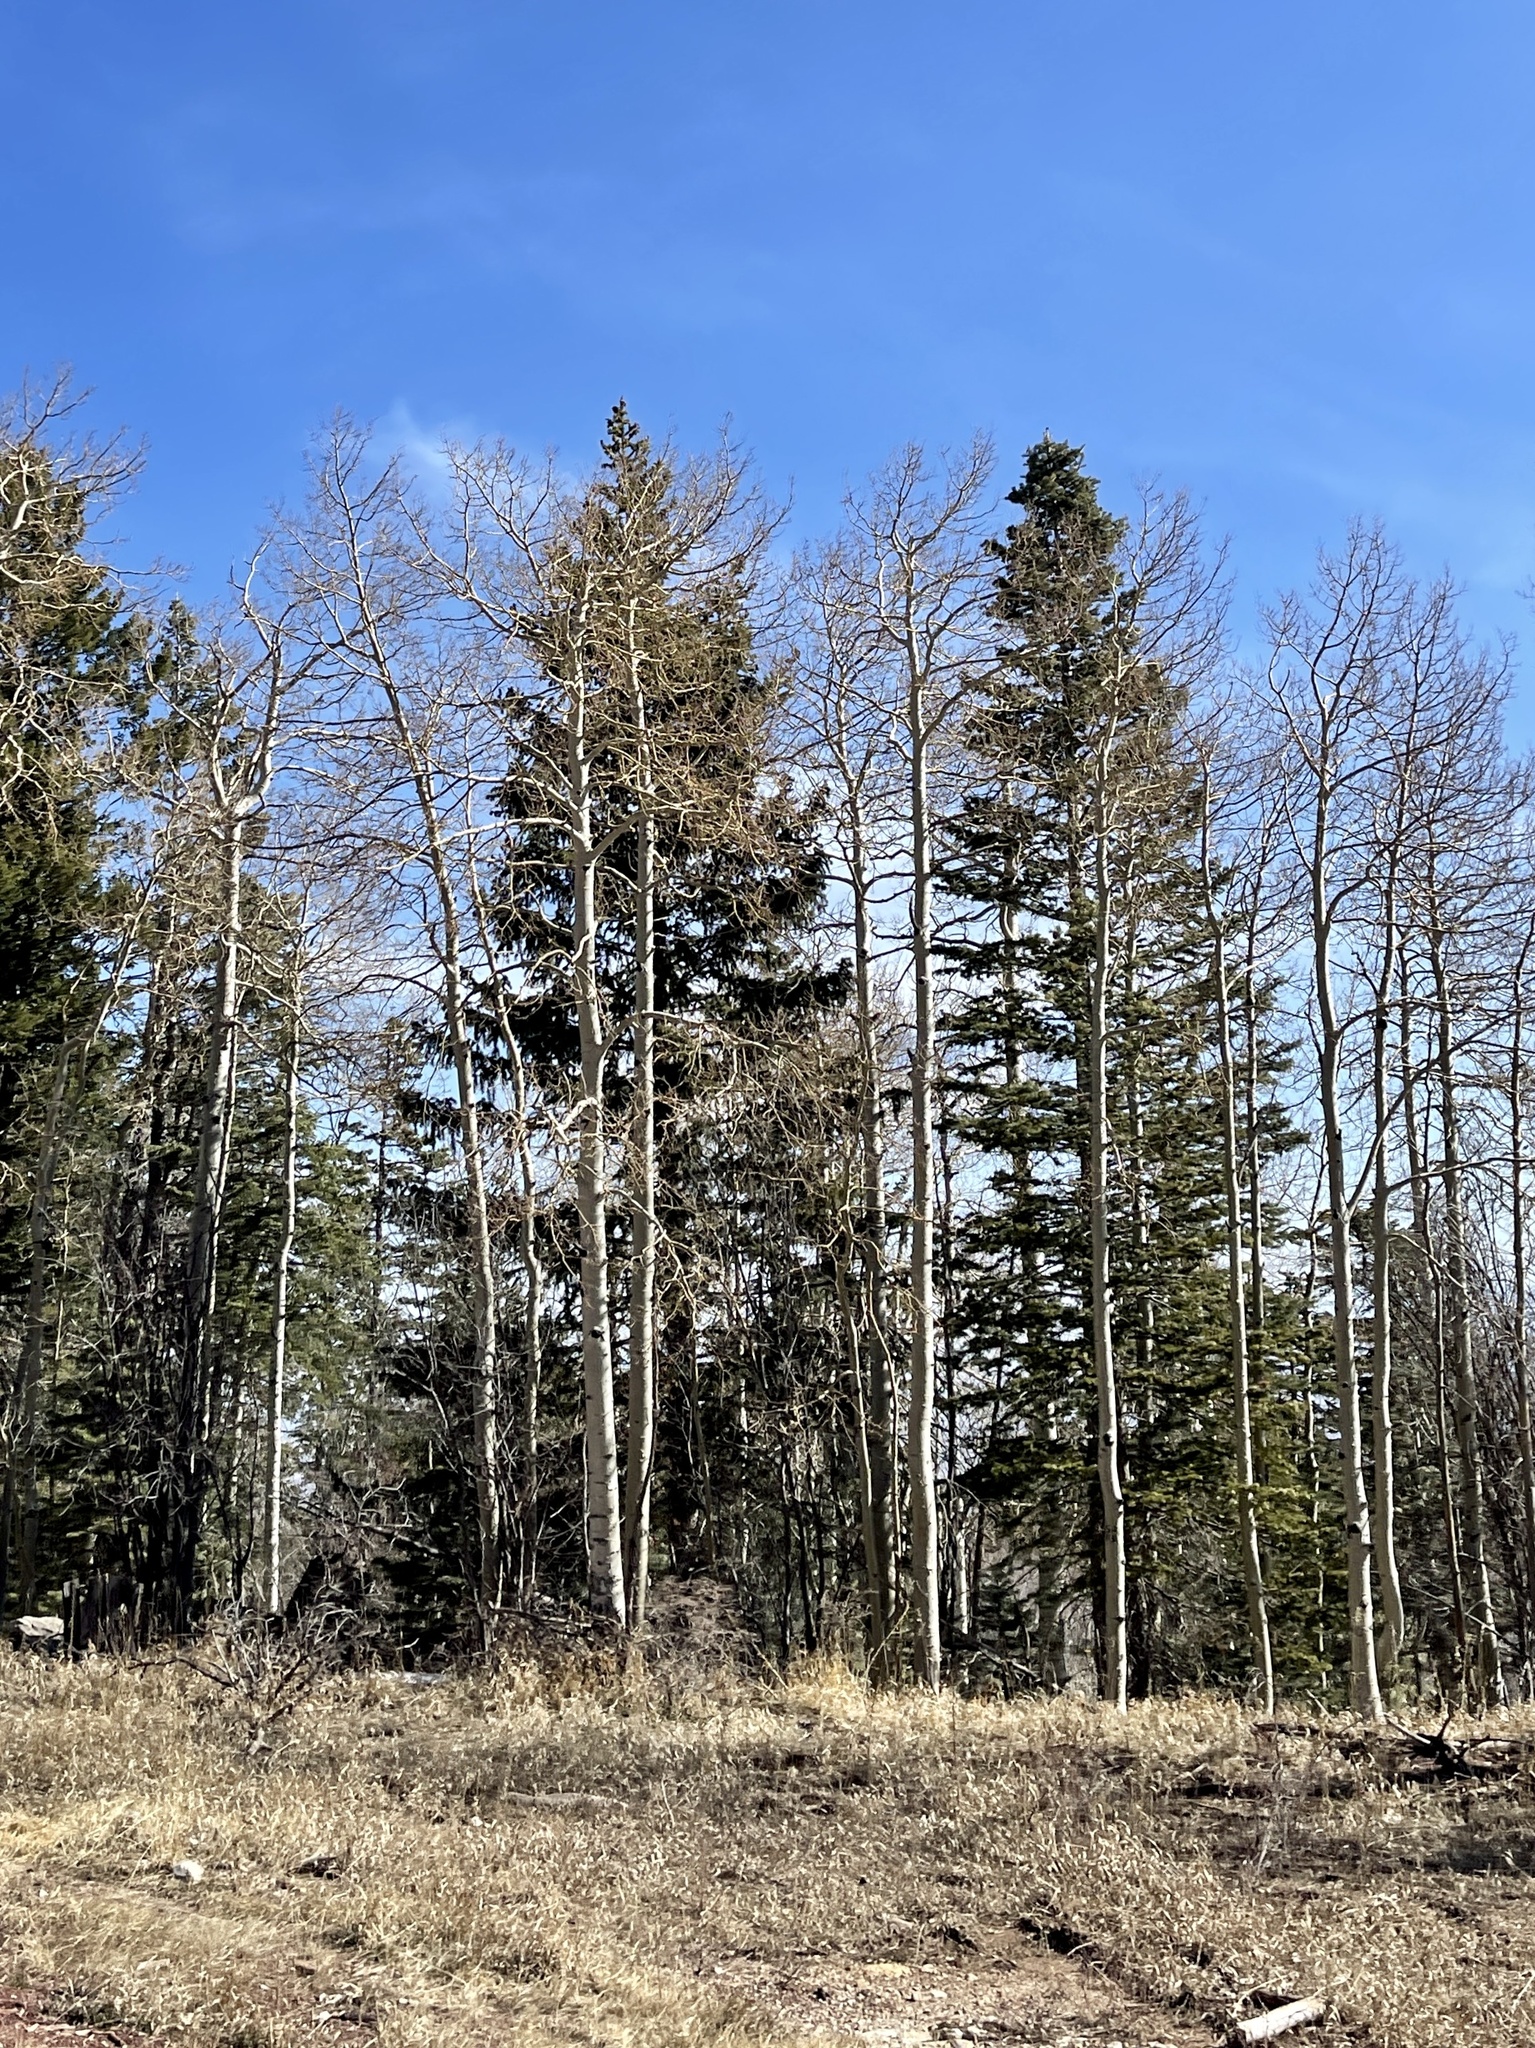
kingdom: Plantae
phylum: Tracheophyta
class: Magnoliopsida
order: Malpighiales
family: Salicaceae
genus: Populus
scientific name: Populus tremuloides
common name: Quaking aspen
